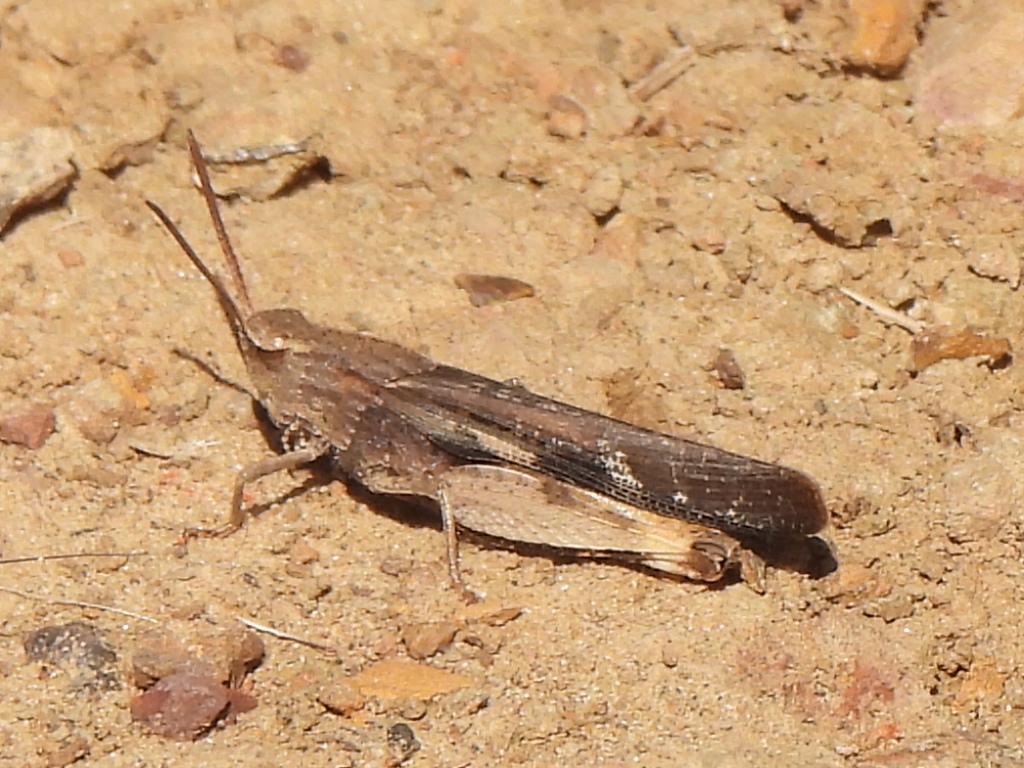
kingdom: Animalia
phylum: Arthropoda
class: Insecta
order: Orthoptera
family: Acrididae
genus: Chortophaga
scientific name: Chortophaga viridifasciata
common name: Green-striped grasshopper
